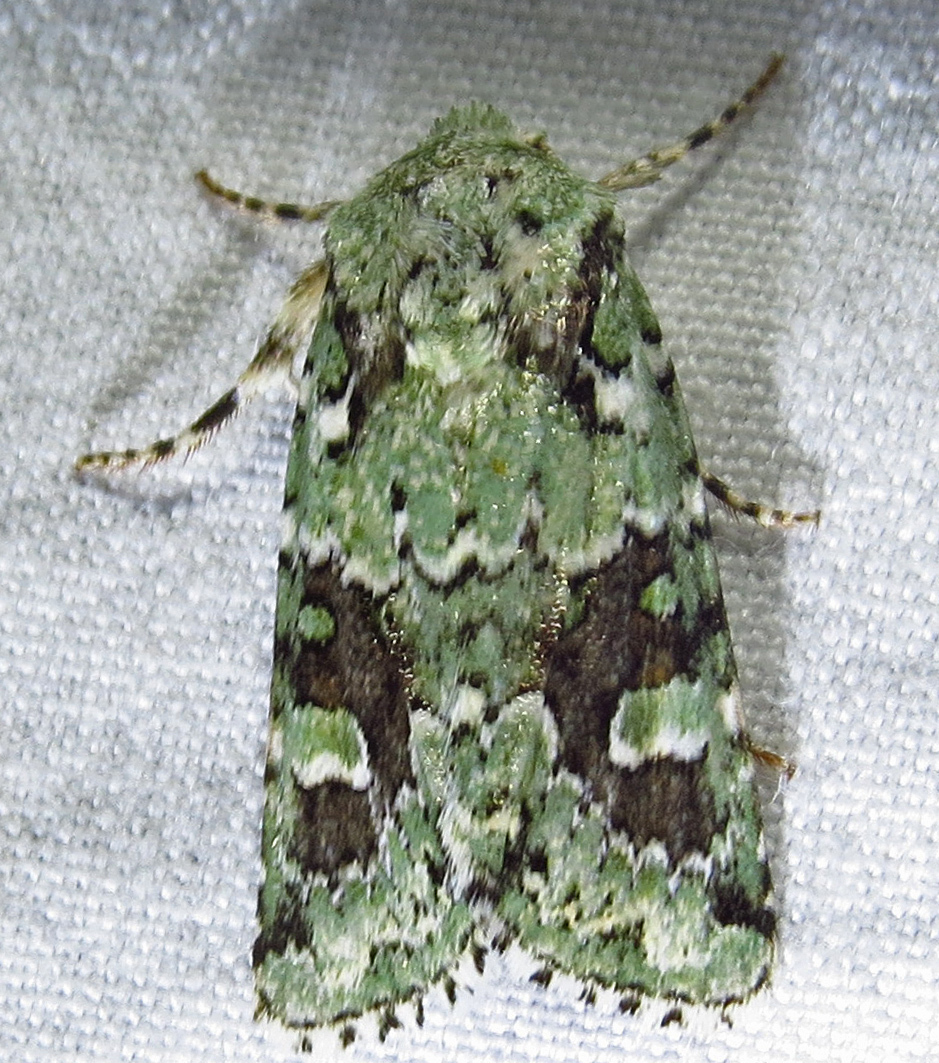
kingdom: Animalia
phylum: Arthropoda
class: Insecta
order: Lepidoptera
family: Noctuidae
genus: Lacinipolia
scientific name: Lacinipolia laudabilis
